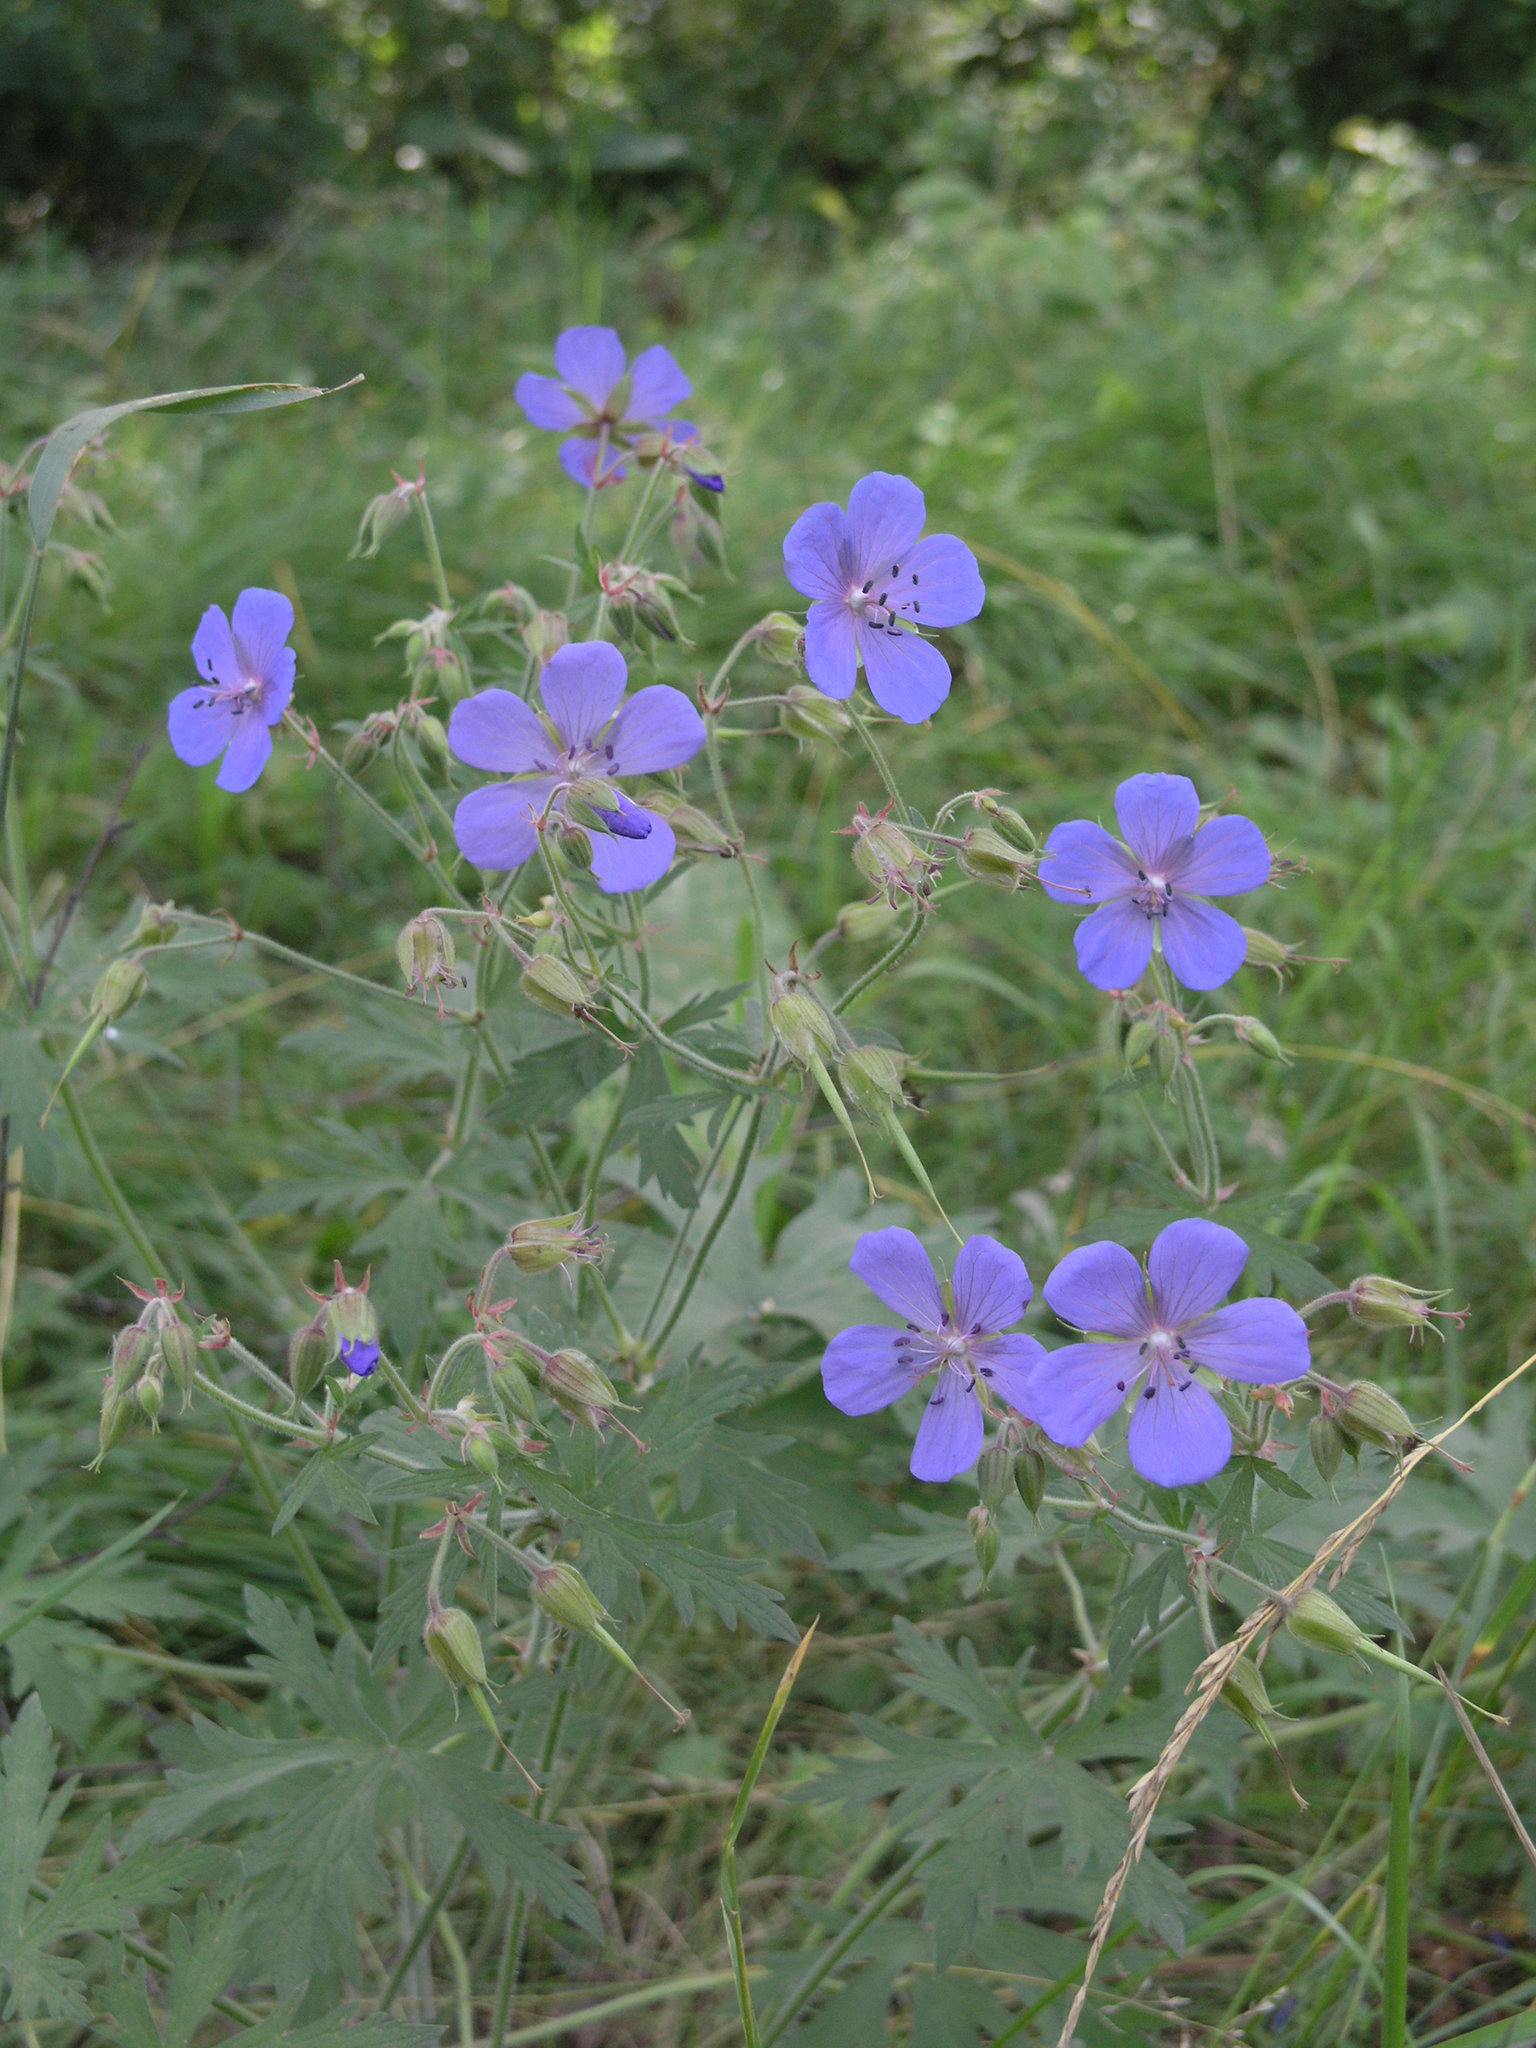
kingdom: Plantae
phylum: Tracheophyta
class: Magnoliopsida
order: Geraniales
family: Geraniaceae
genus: Geranium
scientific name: Geranium pratense
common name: Meadow crane's-bill
